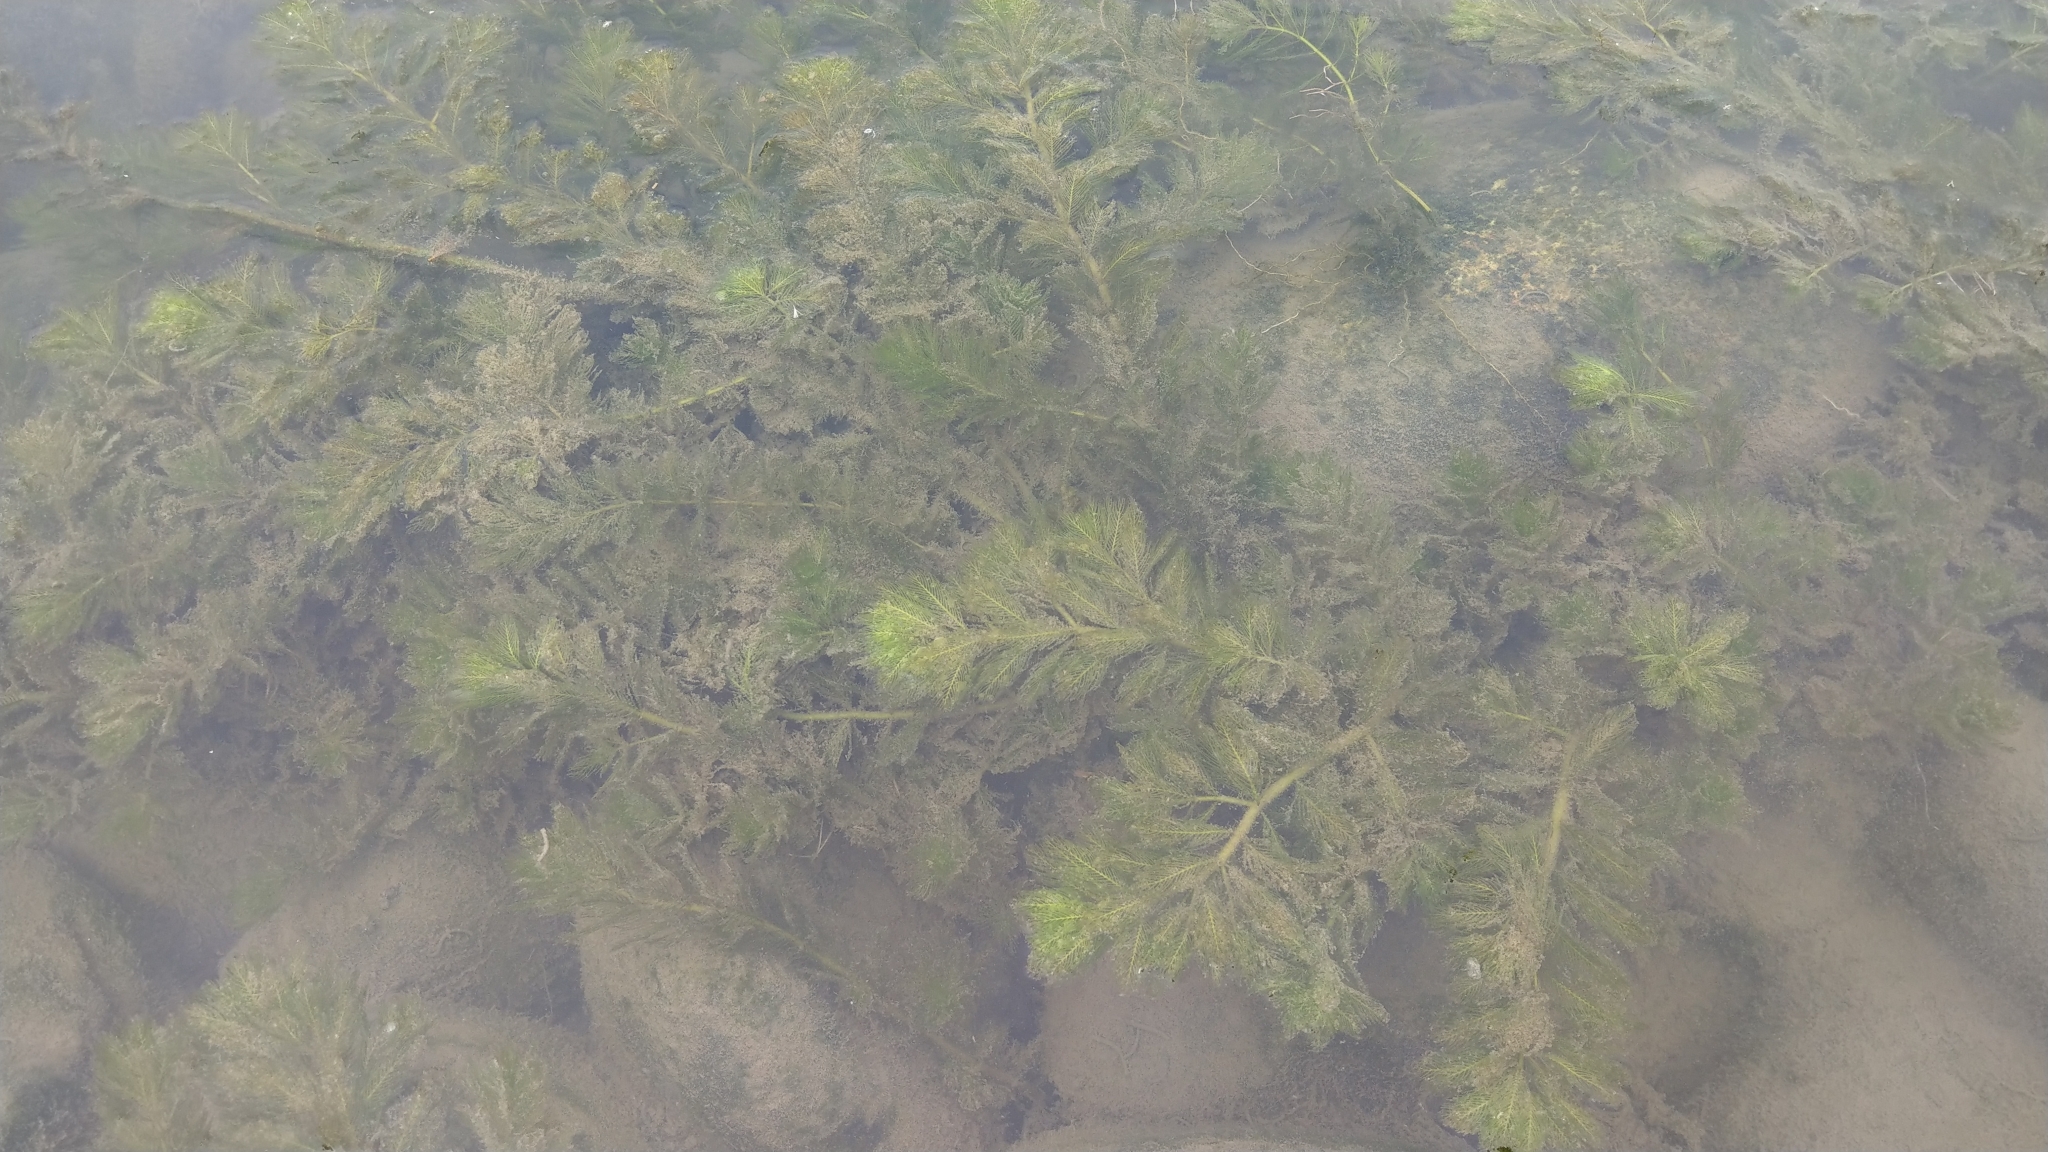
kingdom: Plantae
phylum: Tracheophyta
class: Magnoliopsida
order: Saxifragales
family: Haloragaceae
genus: Myriophyllum
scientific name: Myriophyllum spicatum
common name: Spiked water-milfoil
